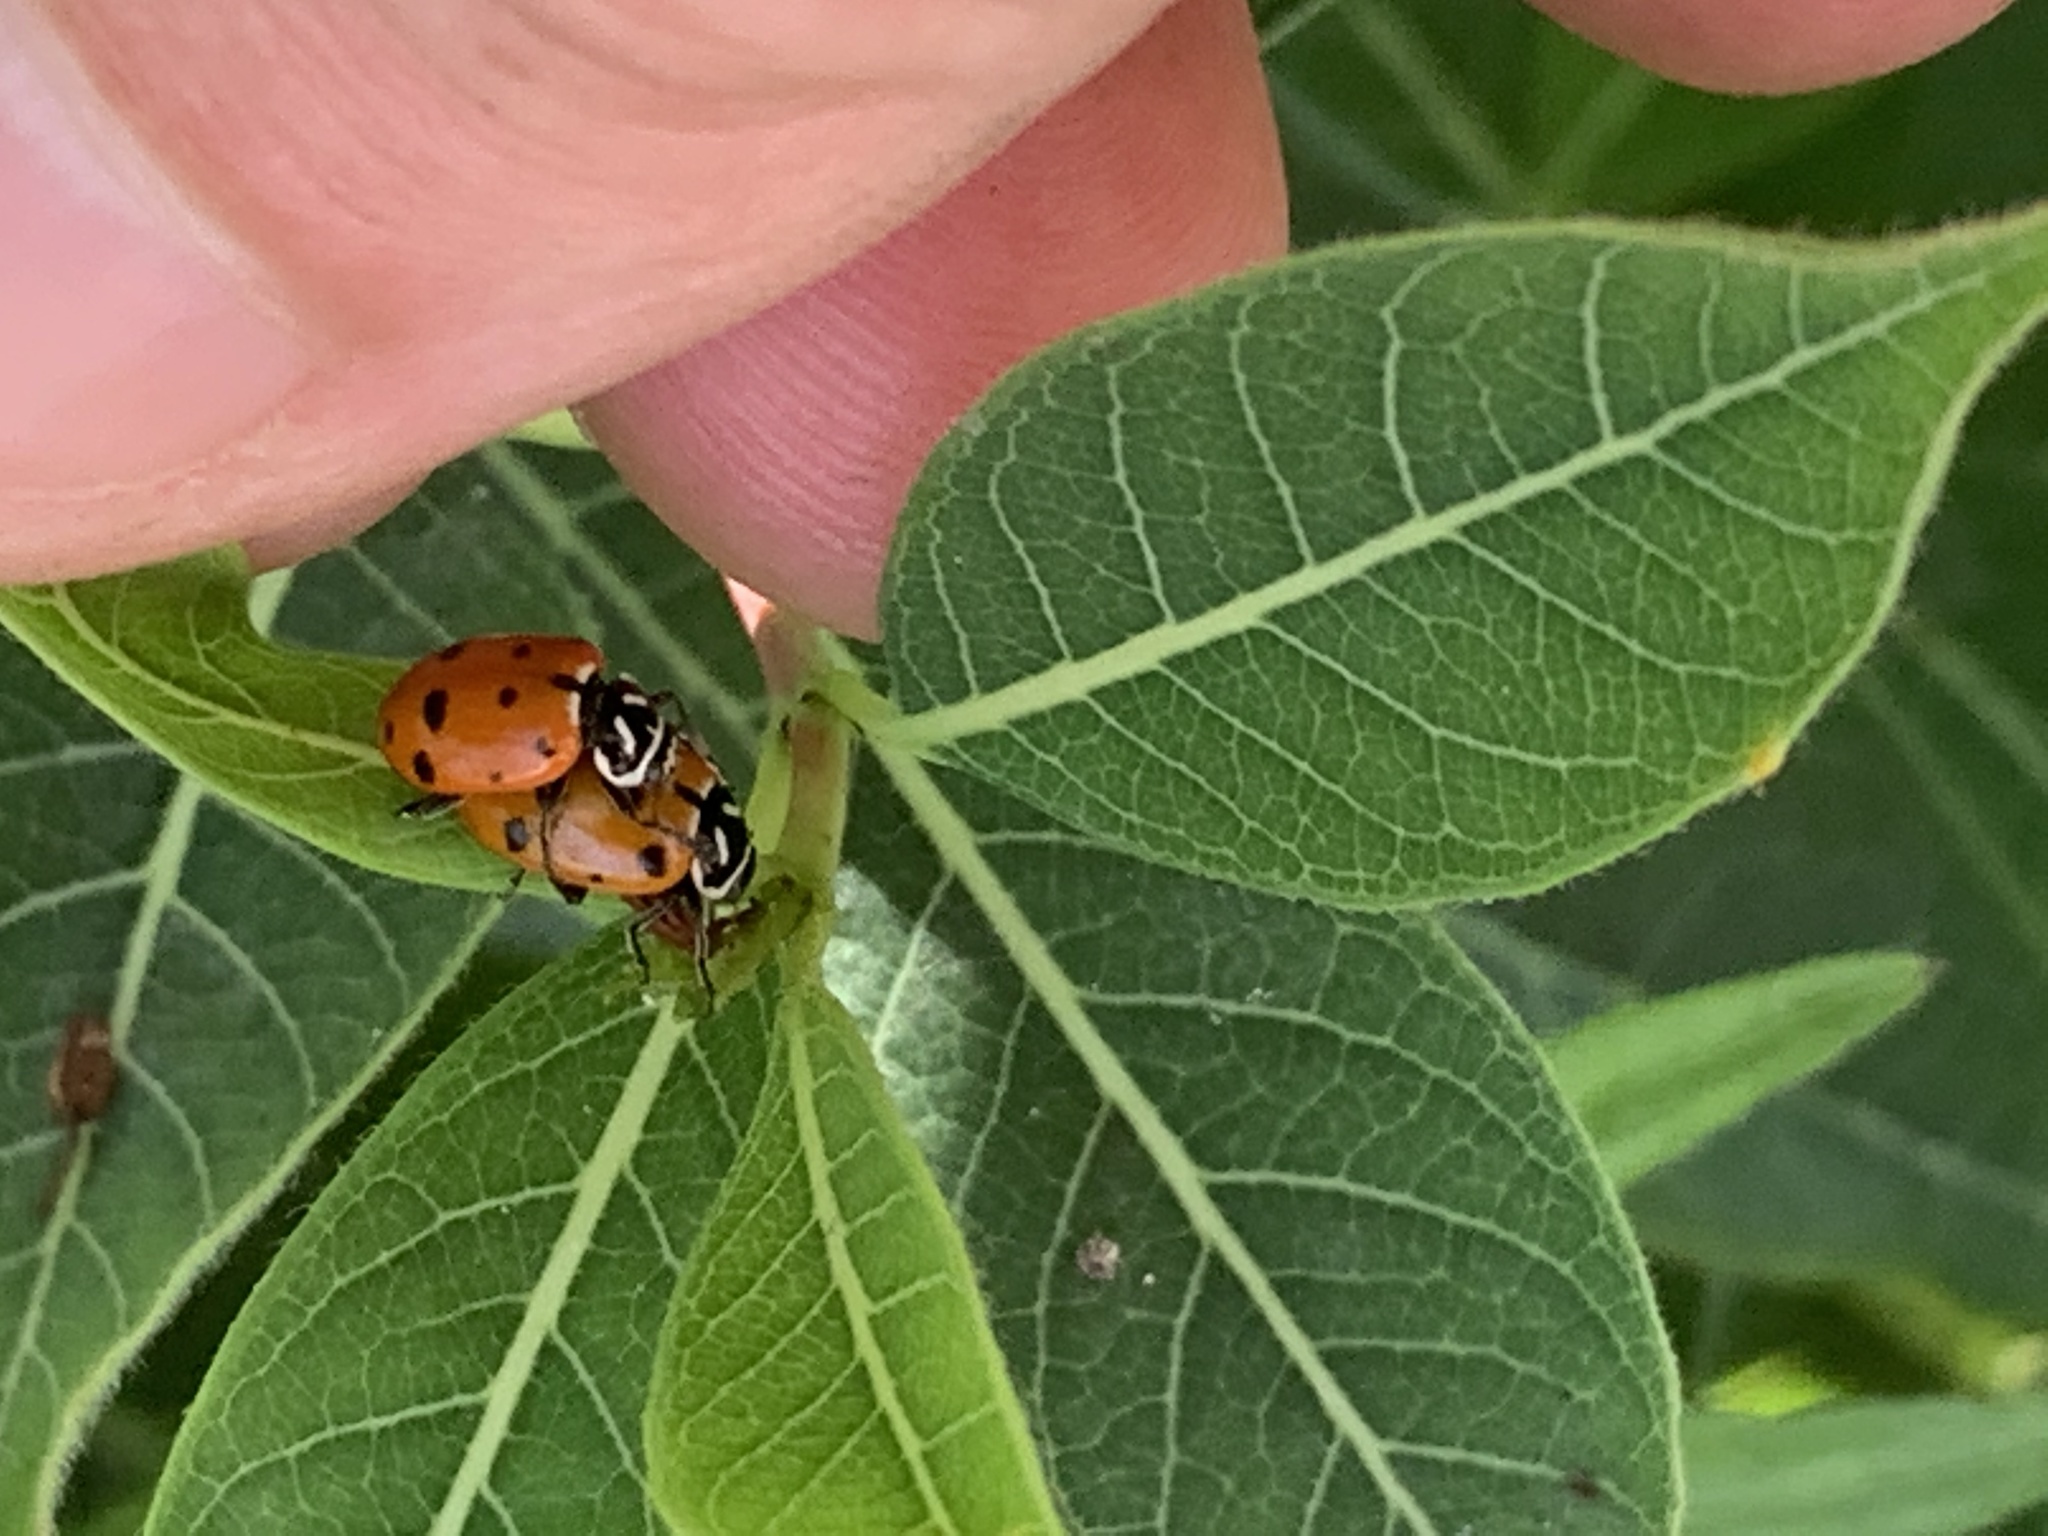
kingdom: Animalia
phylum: Arthropoda
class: Insecta
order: Coleoptera
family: Coccinellidae
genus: Hippodamia
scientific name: Hippodamia convergens
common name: Convergent lady beetle
